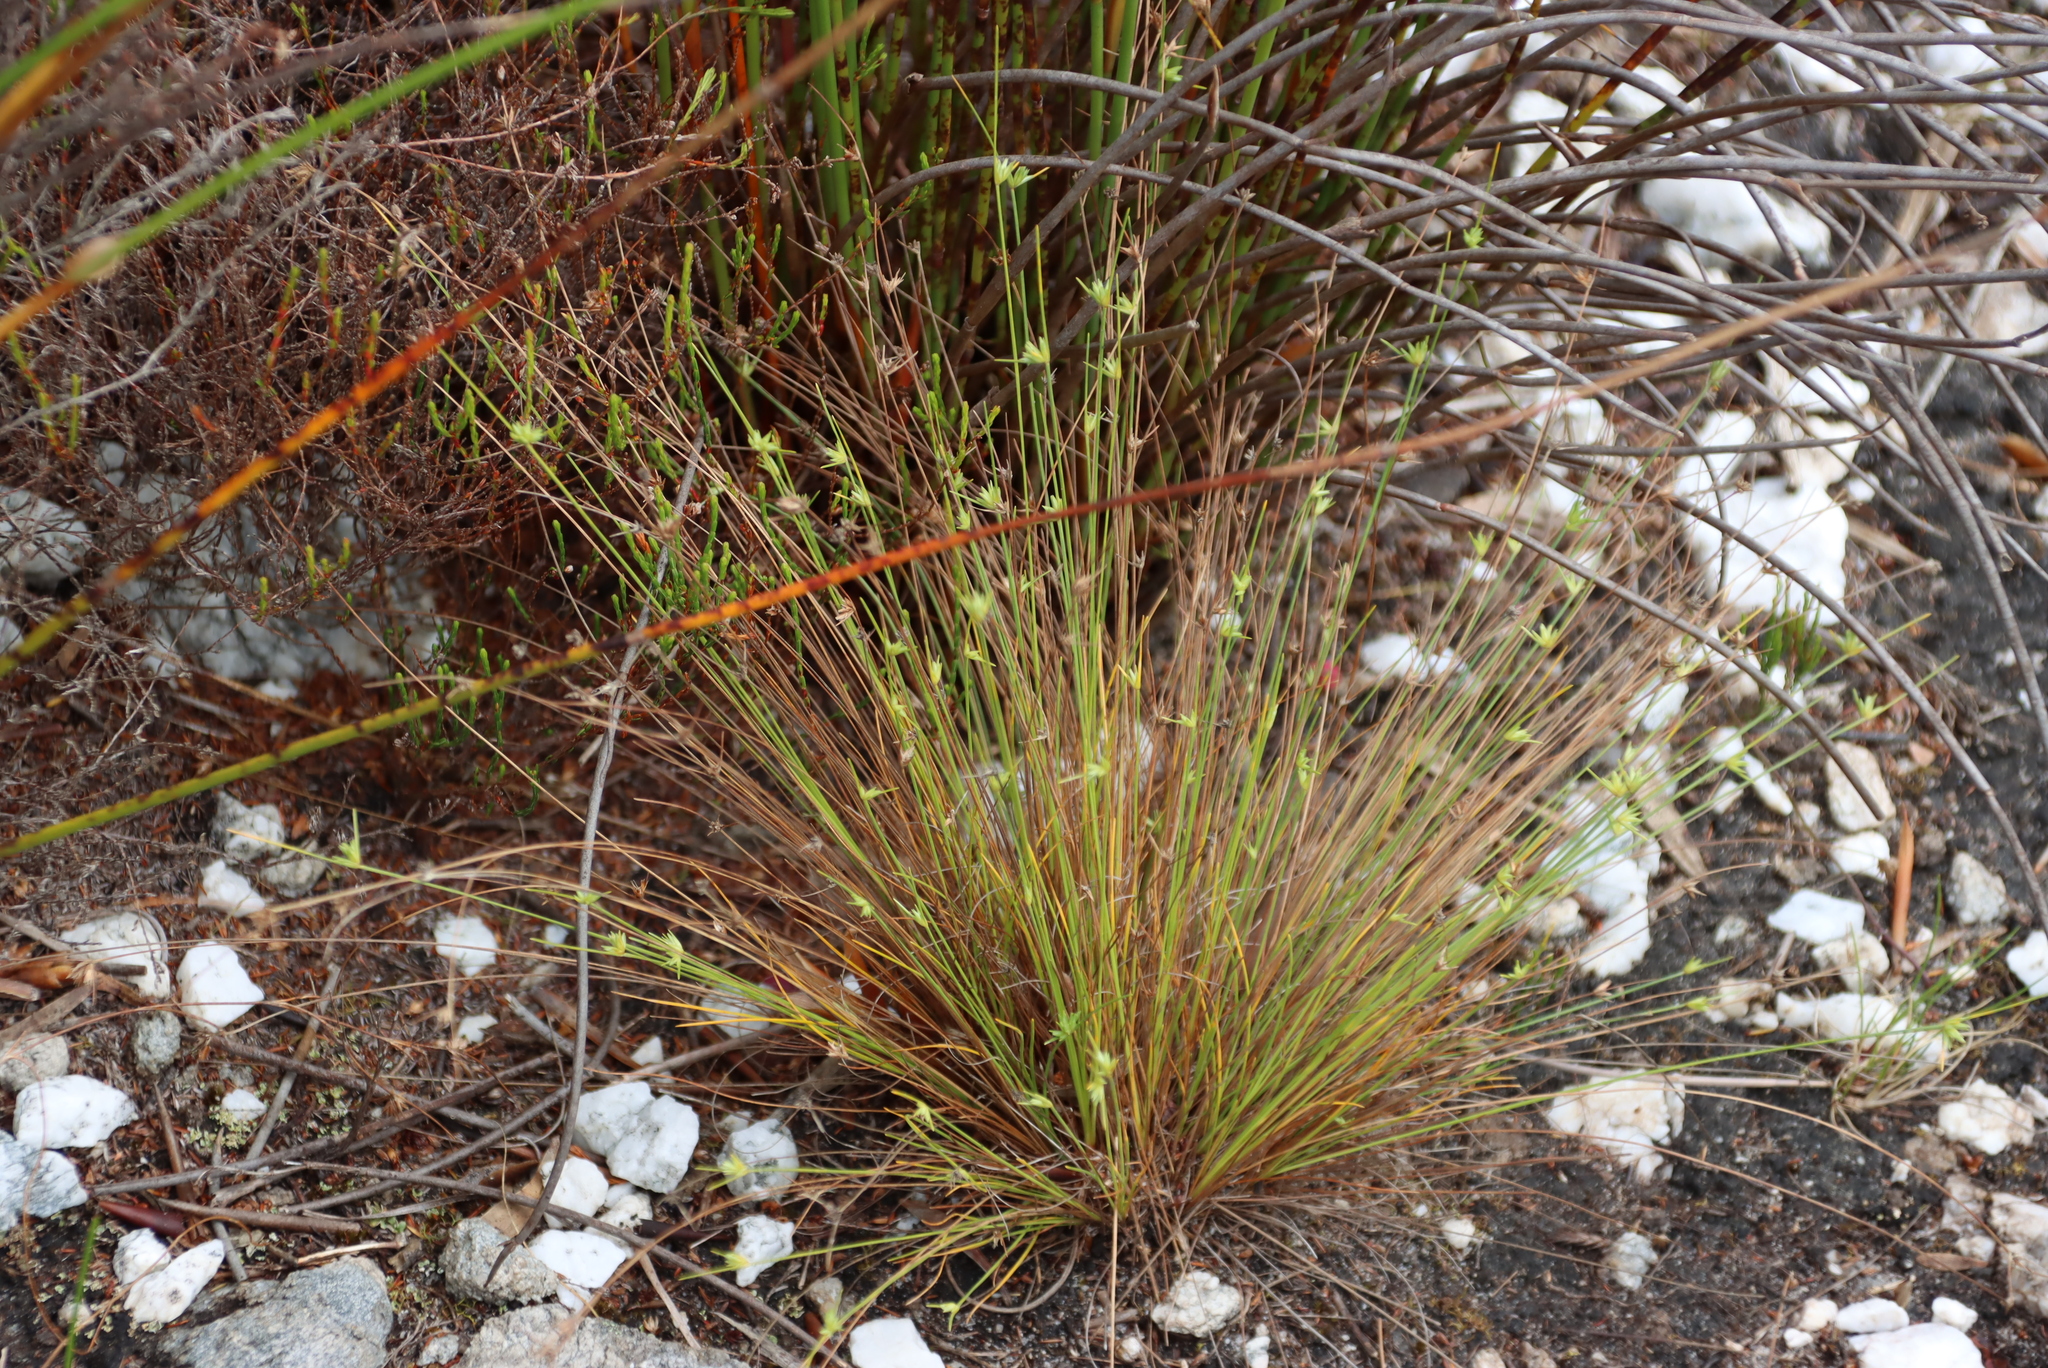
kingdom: Plantae
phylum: Tracheophyta
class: Liliopsida
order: Poales
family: Cyperaceae
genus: Ficinia
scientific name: Ficinia filiformis
